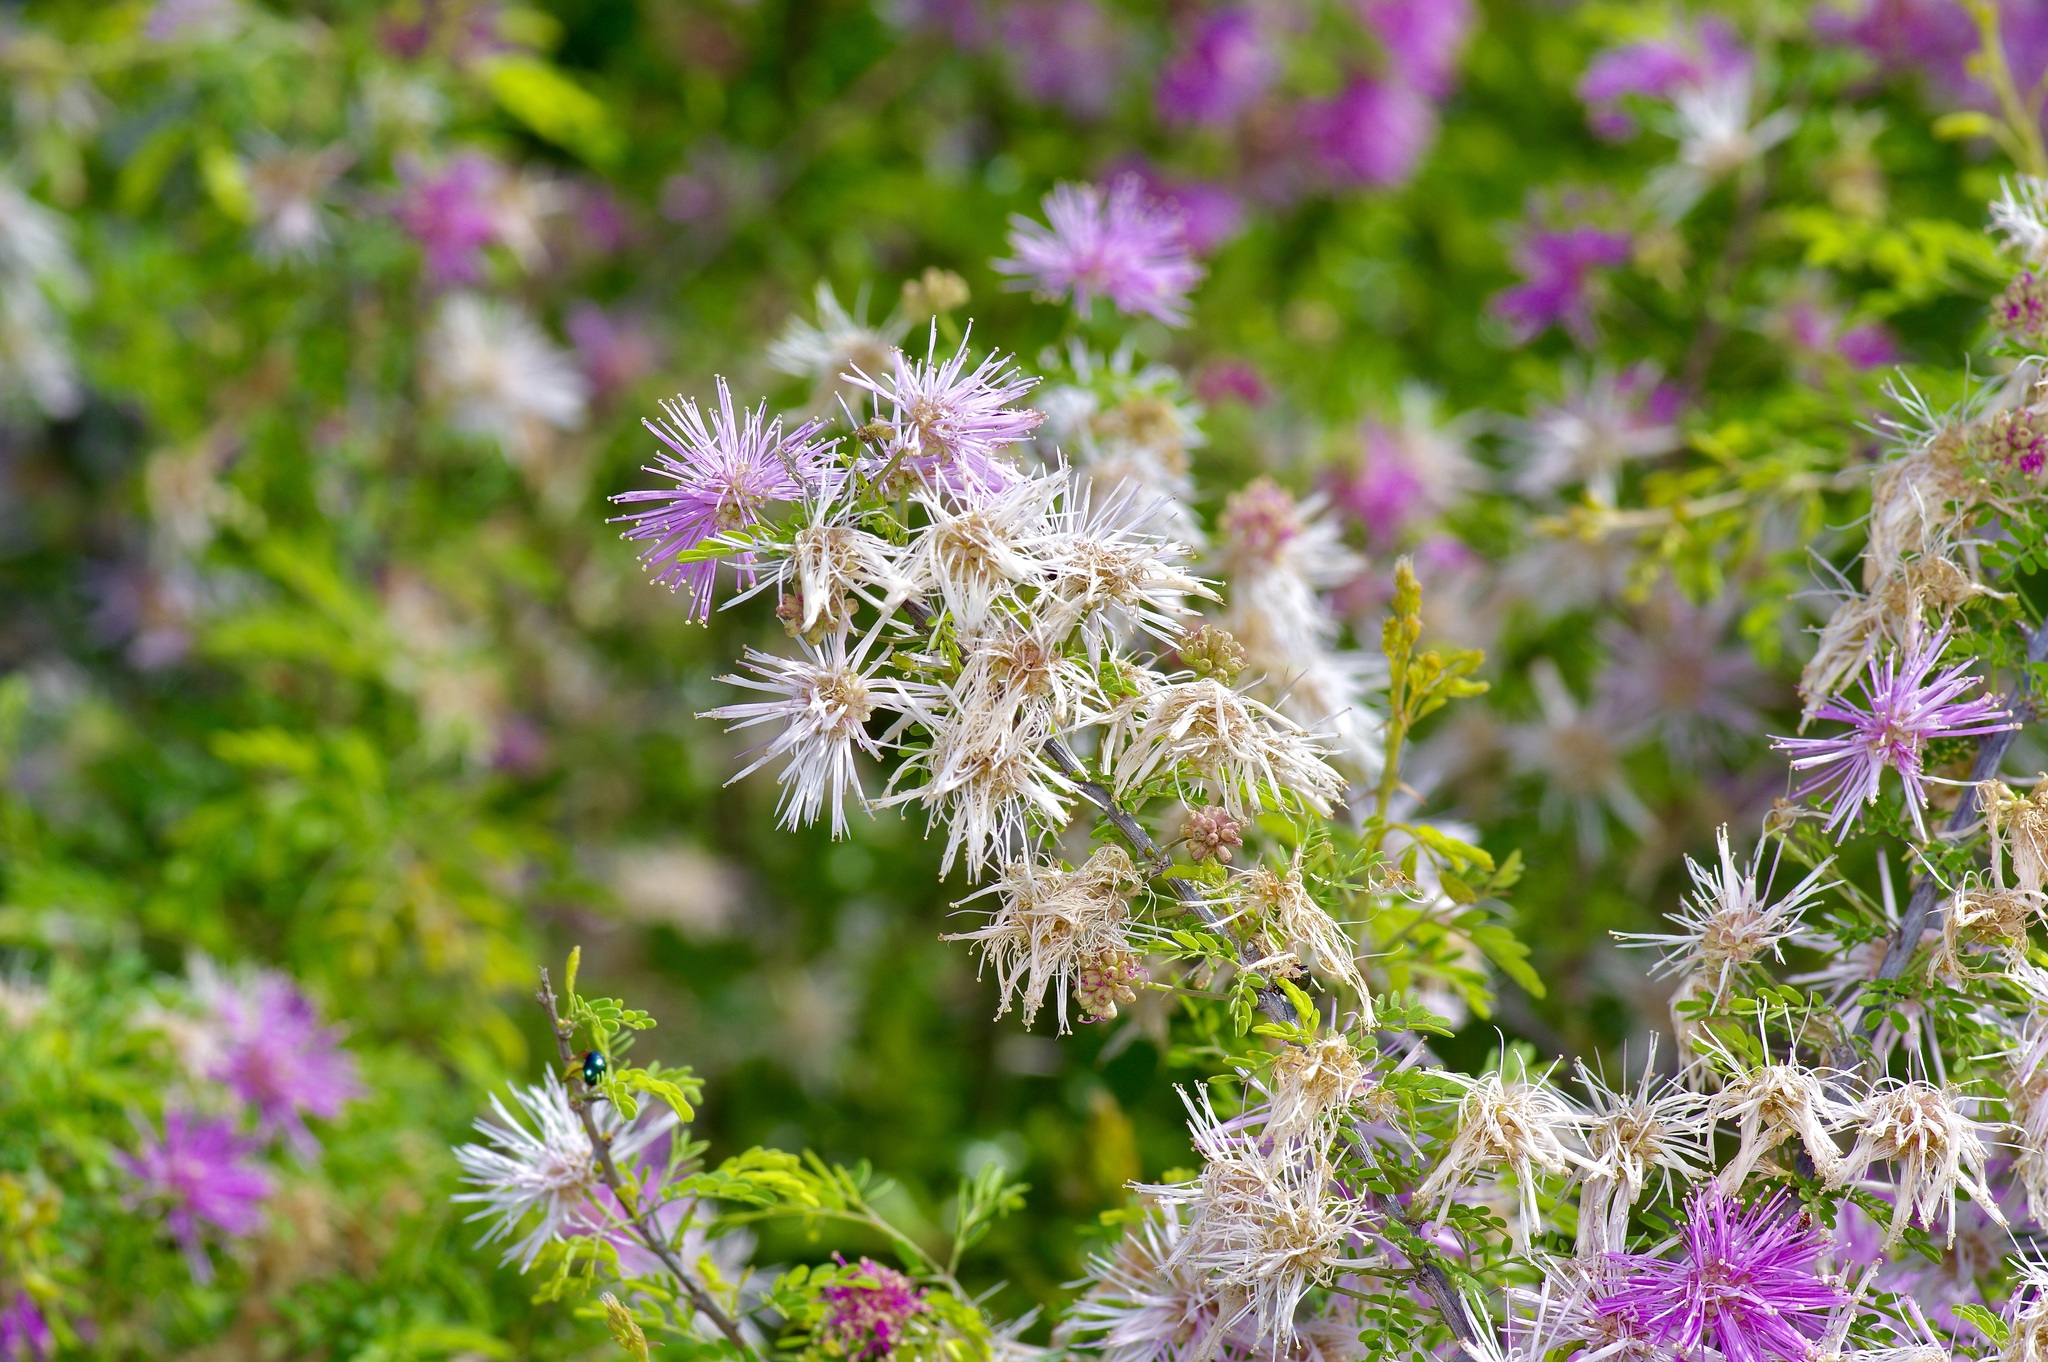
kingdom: Plantae
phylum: Tracheophyta
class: Magnoliopsida
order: Fabales
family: Fabaceae
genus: Mimosa
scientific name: Mimosa borealis
